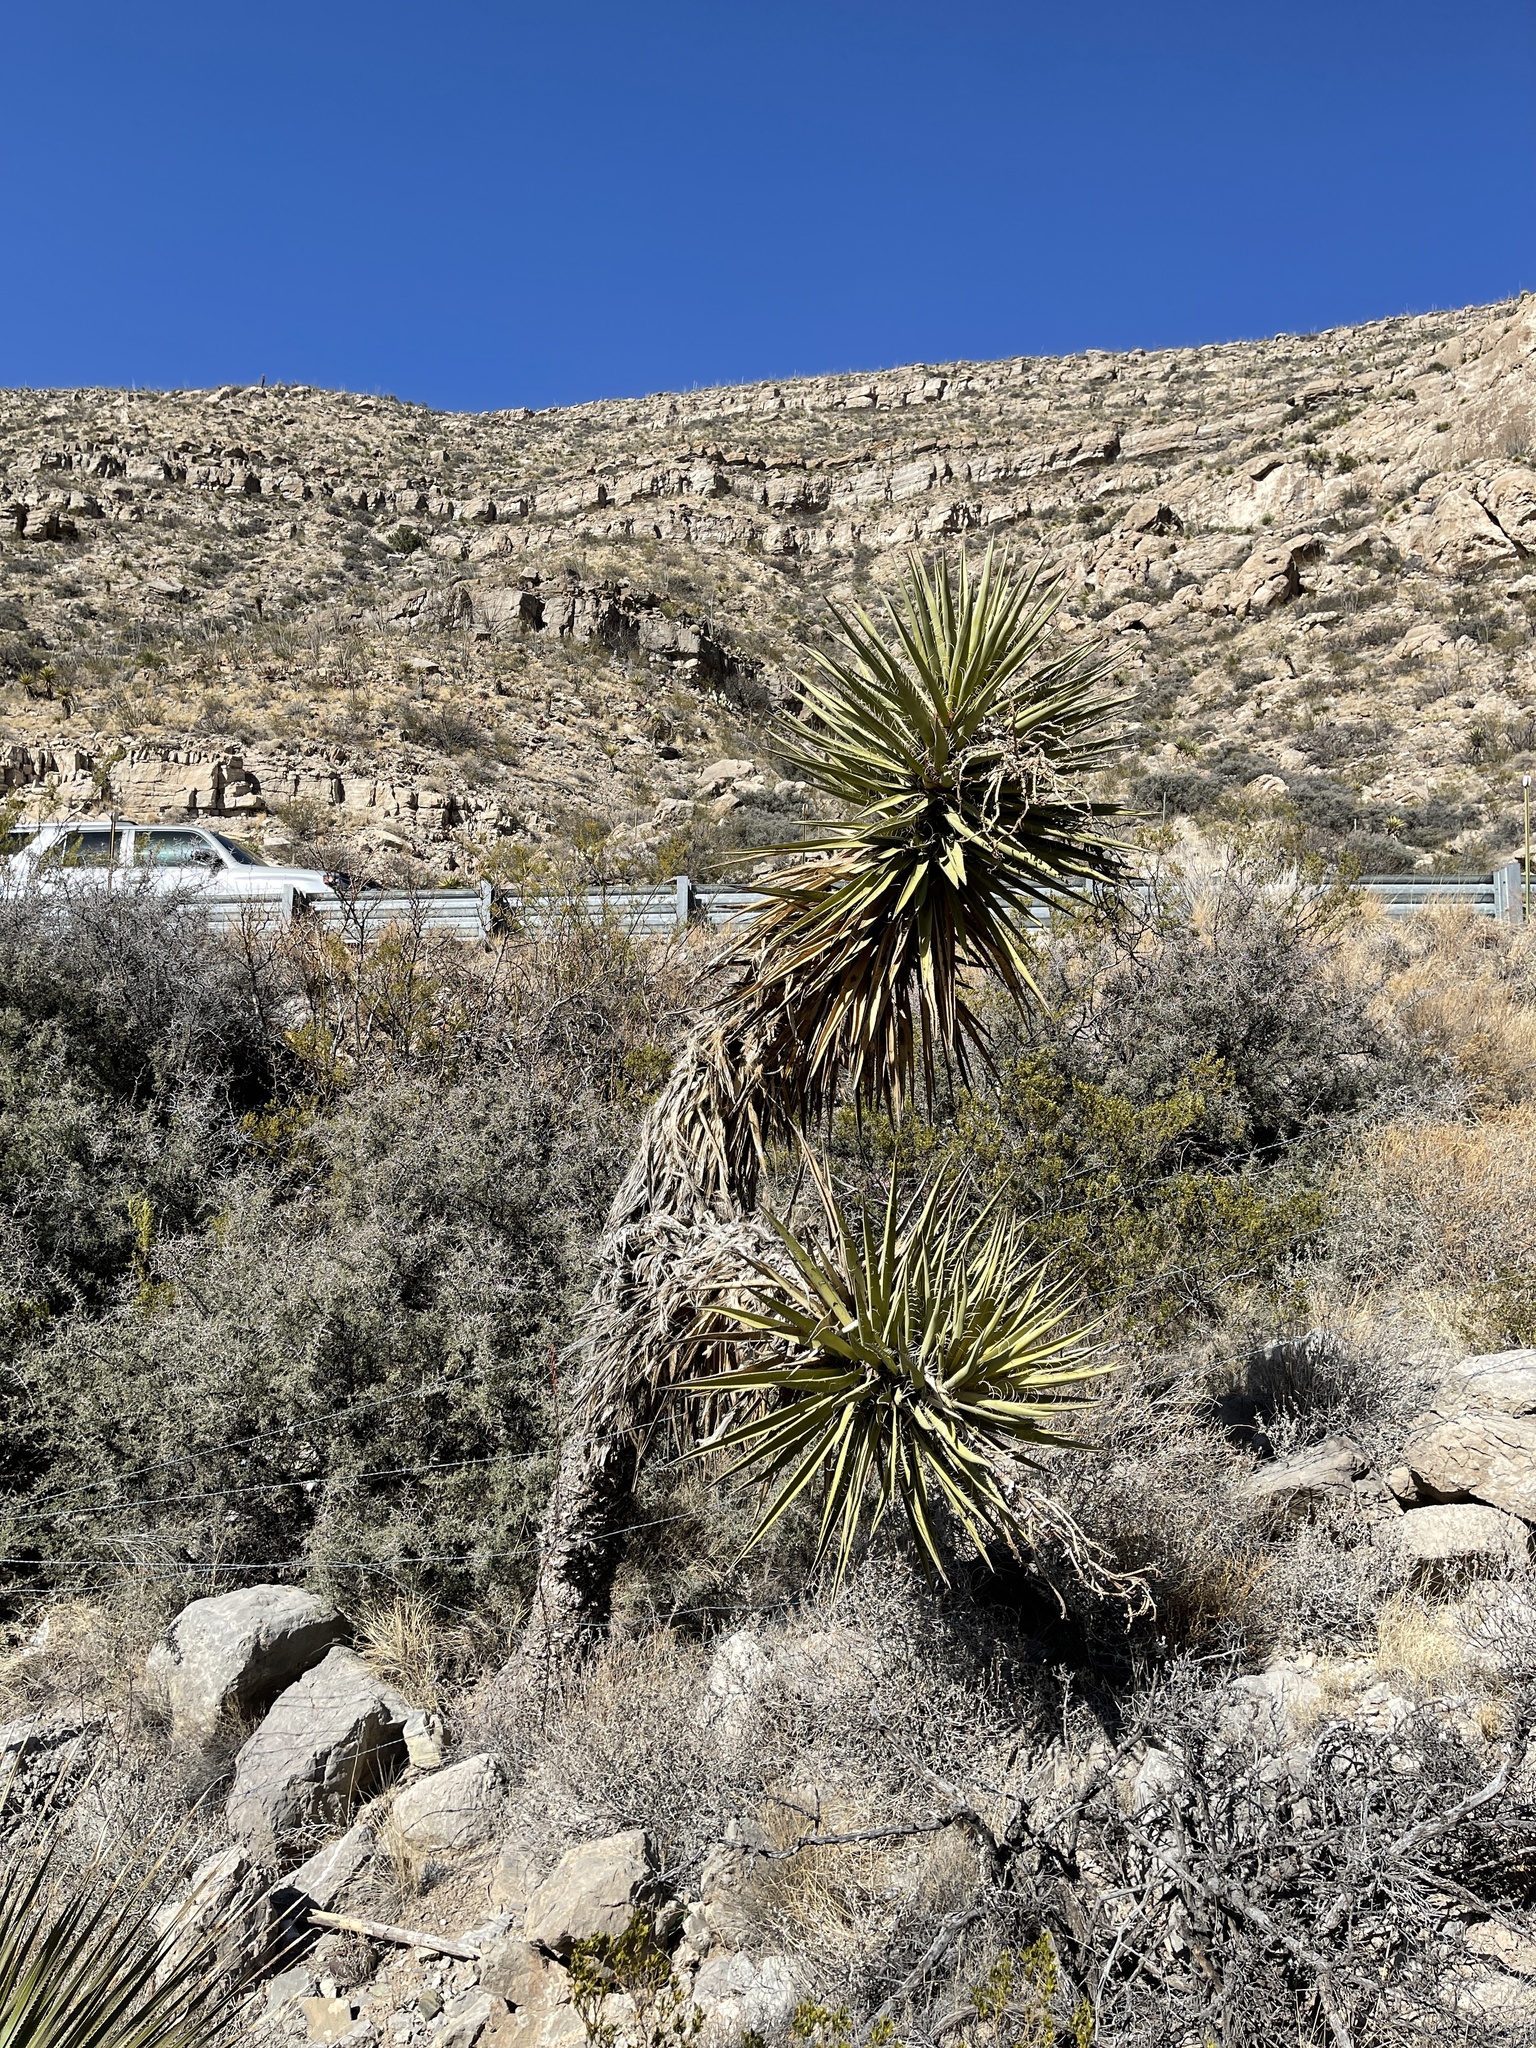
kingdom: Plantae
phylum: Tracheophyta
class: Liliopsida
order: Asparagales
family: Asparagaceae
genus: Yucca
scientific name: Yucca treculiana
